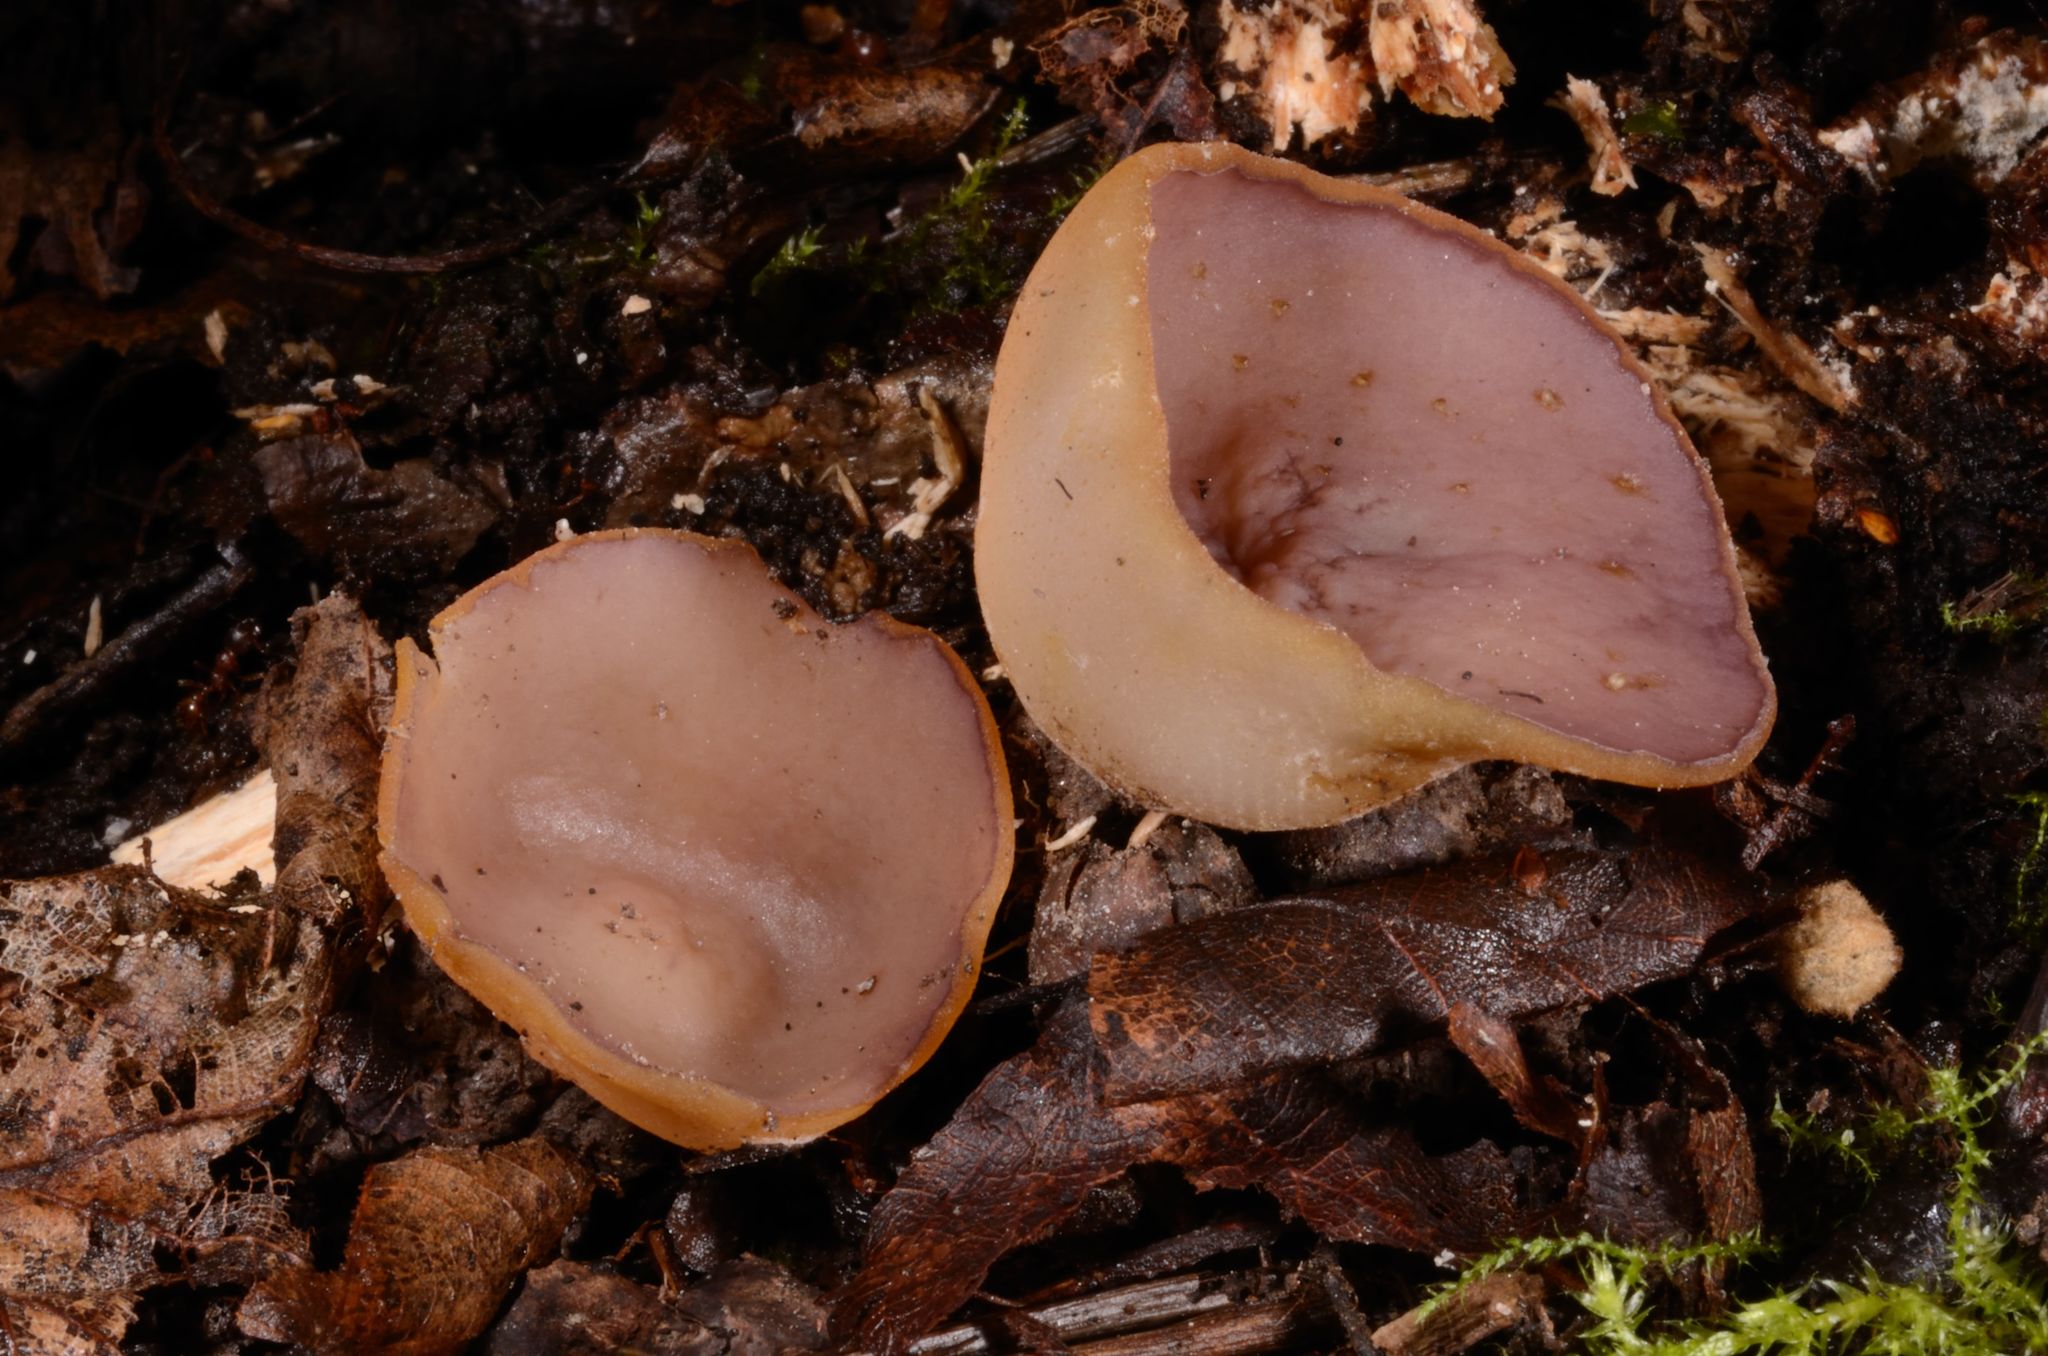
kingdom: Fungi
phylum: Ascomycota
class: Pezizomycetes
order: Pezizales
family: Pezizaceae
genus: Paragalactinia
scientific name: Paragalactinia michelii
